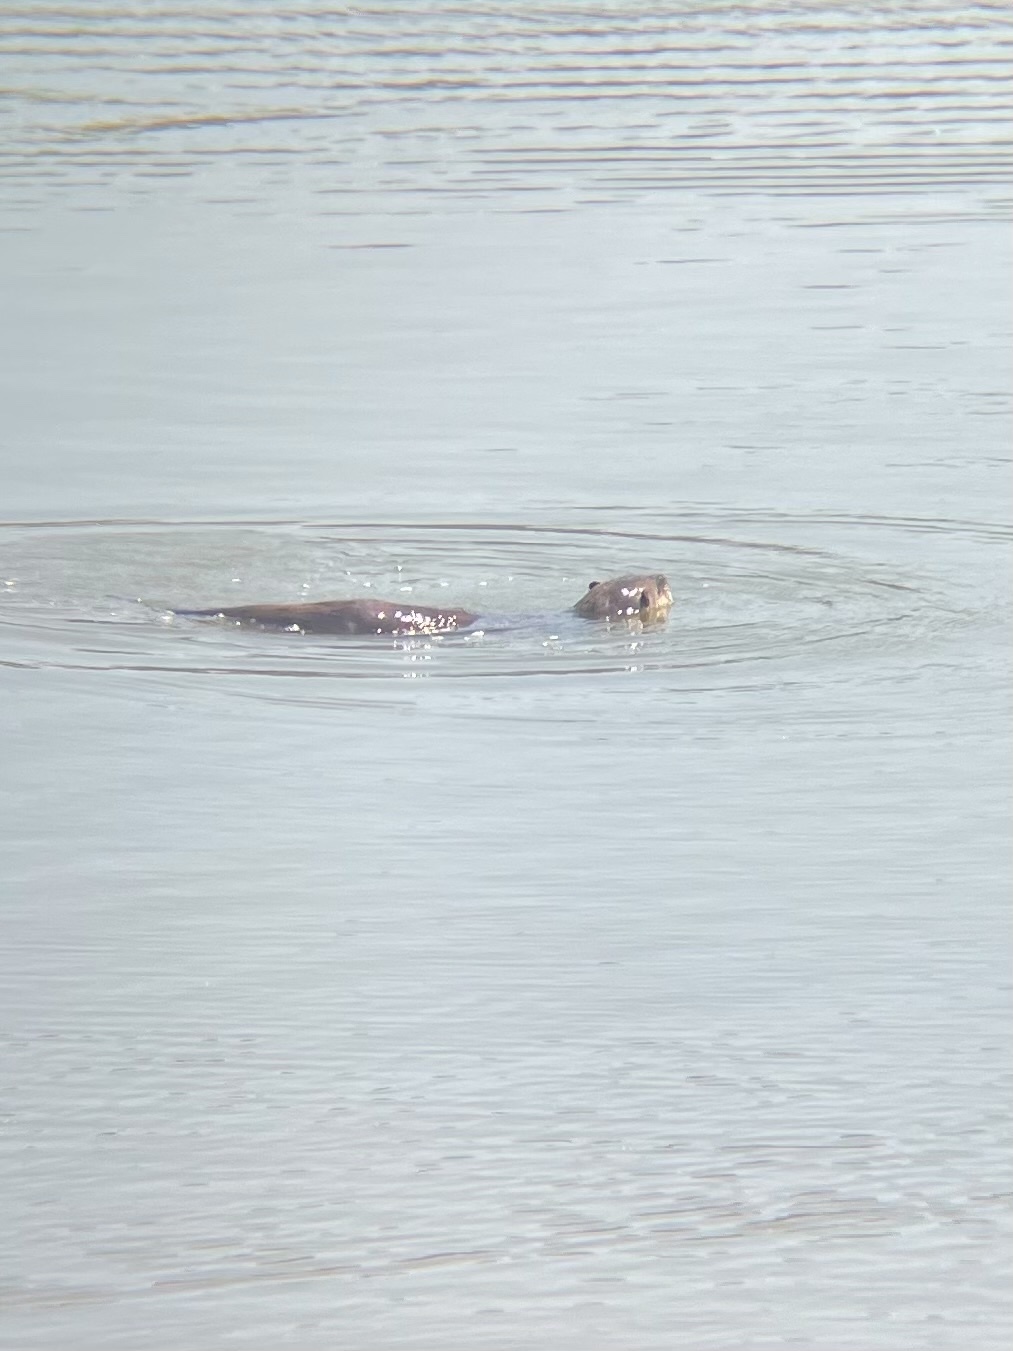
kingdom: Animalia
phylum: Chordata
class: Mammalia
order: Carnivora
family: Mustelidae
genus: Lontra
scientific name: Lontra canadensis
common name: North american river otter
